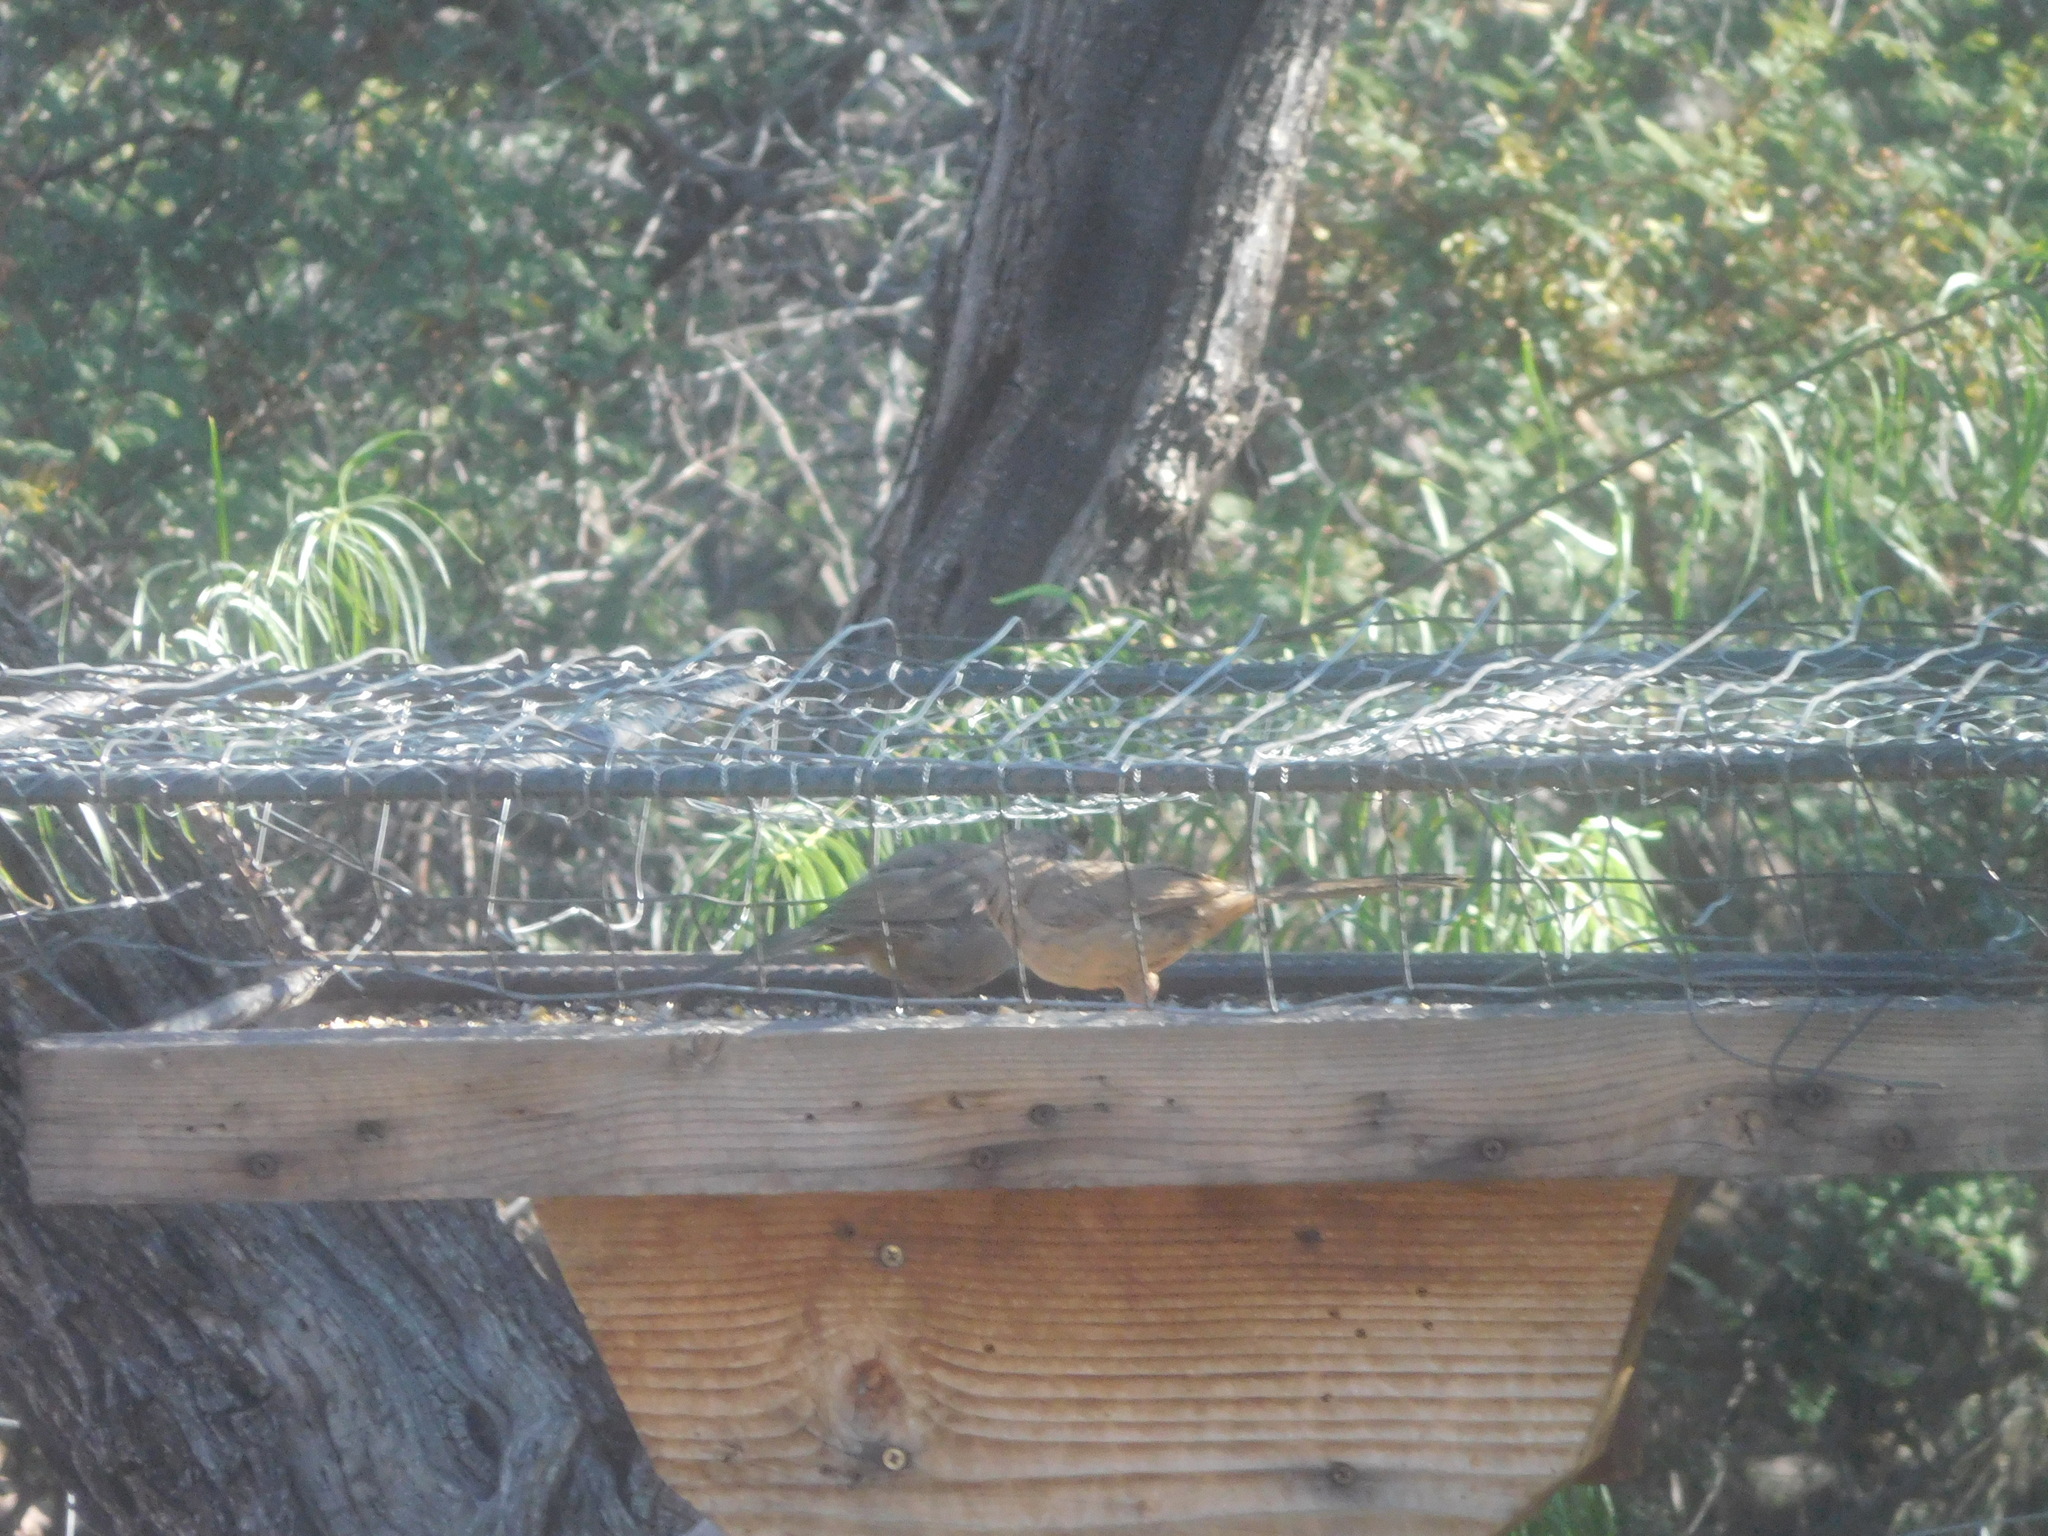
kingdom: Animalia
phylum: Chordata
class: Aves
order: Passeriformes
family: Passerellidae
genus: Melozone
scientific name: Melozone aberti
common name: Abert's towhee
